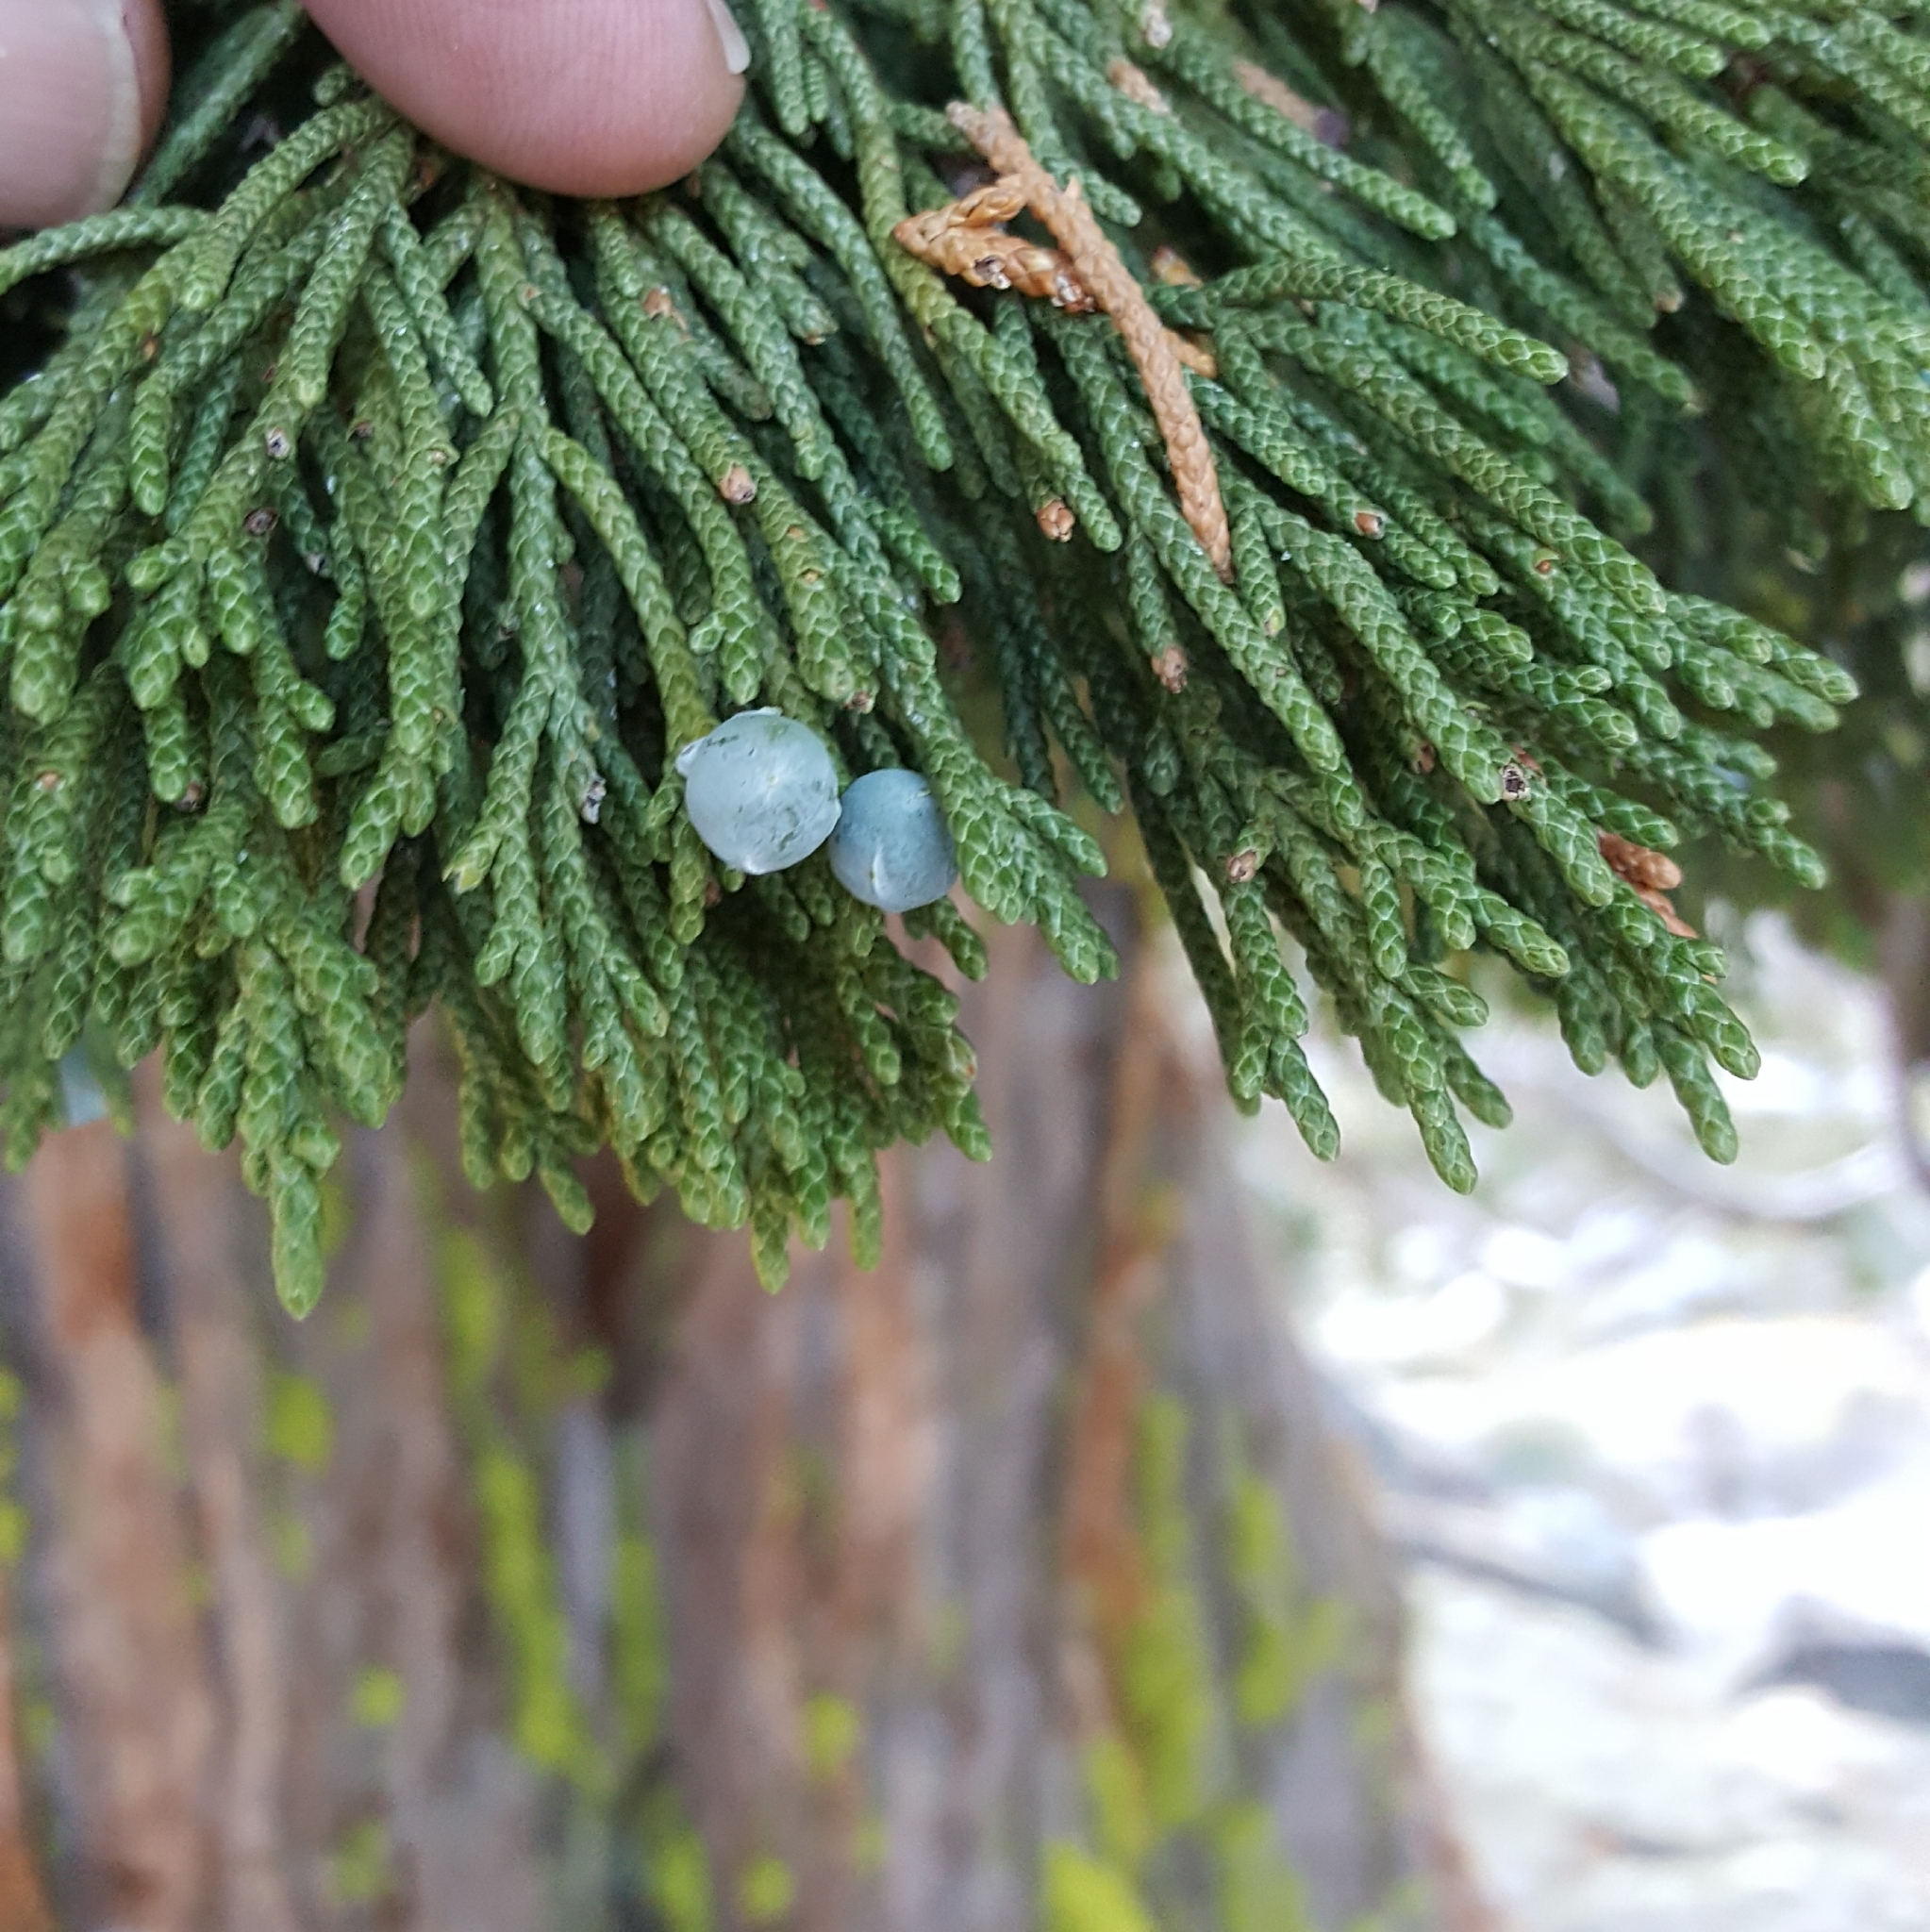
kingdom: Plantae
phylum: Tracheophyta
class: Pinopsida
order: Pinales
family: Cupressaceae
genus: Juniperus
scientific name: Juniperus occidentalis
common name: Western juniper
